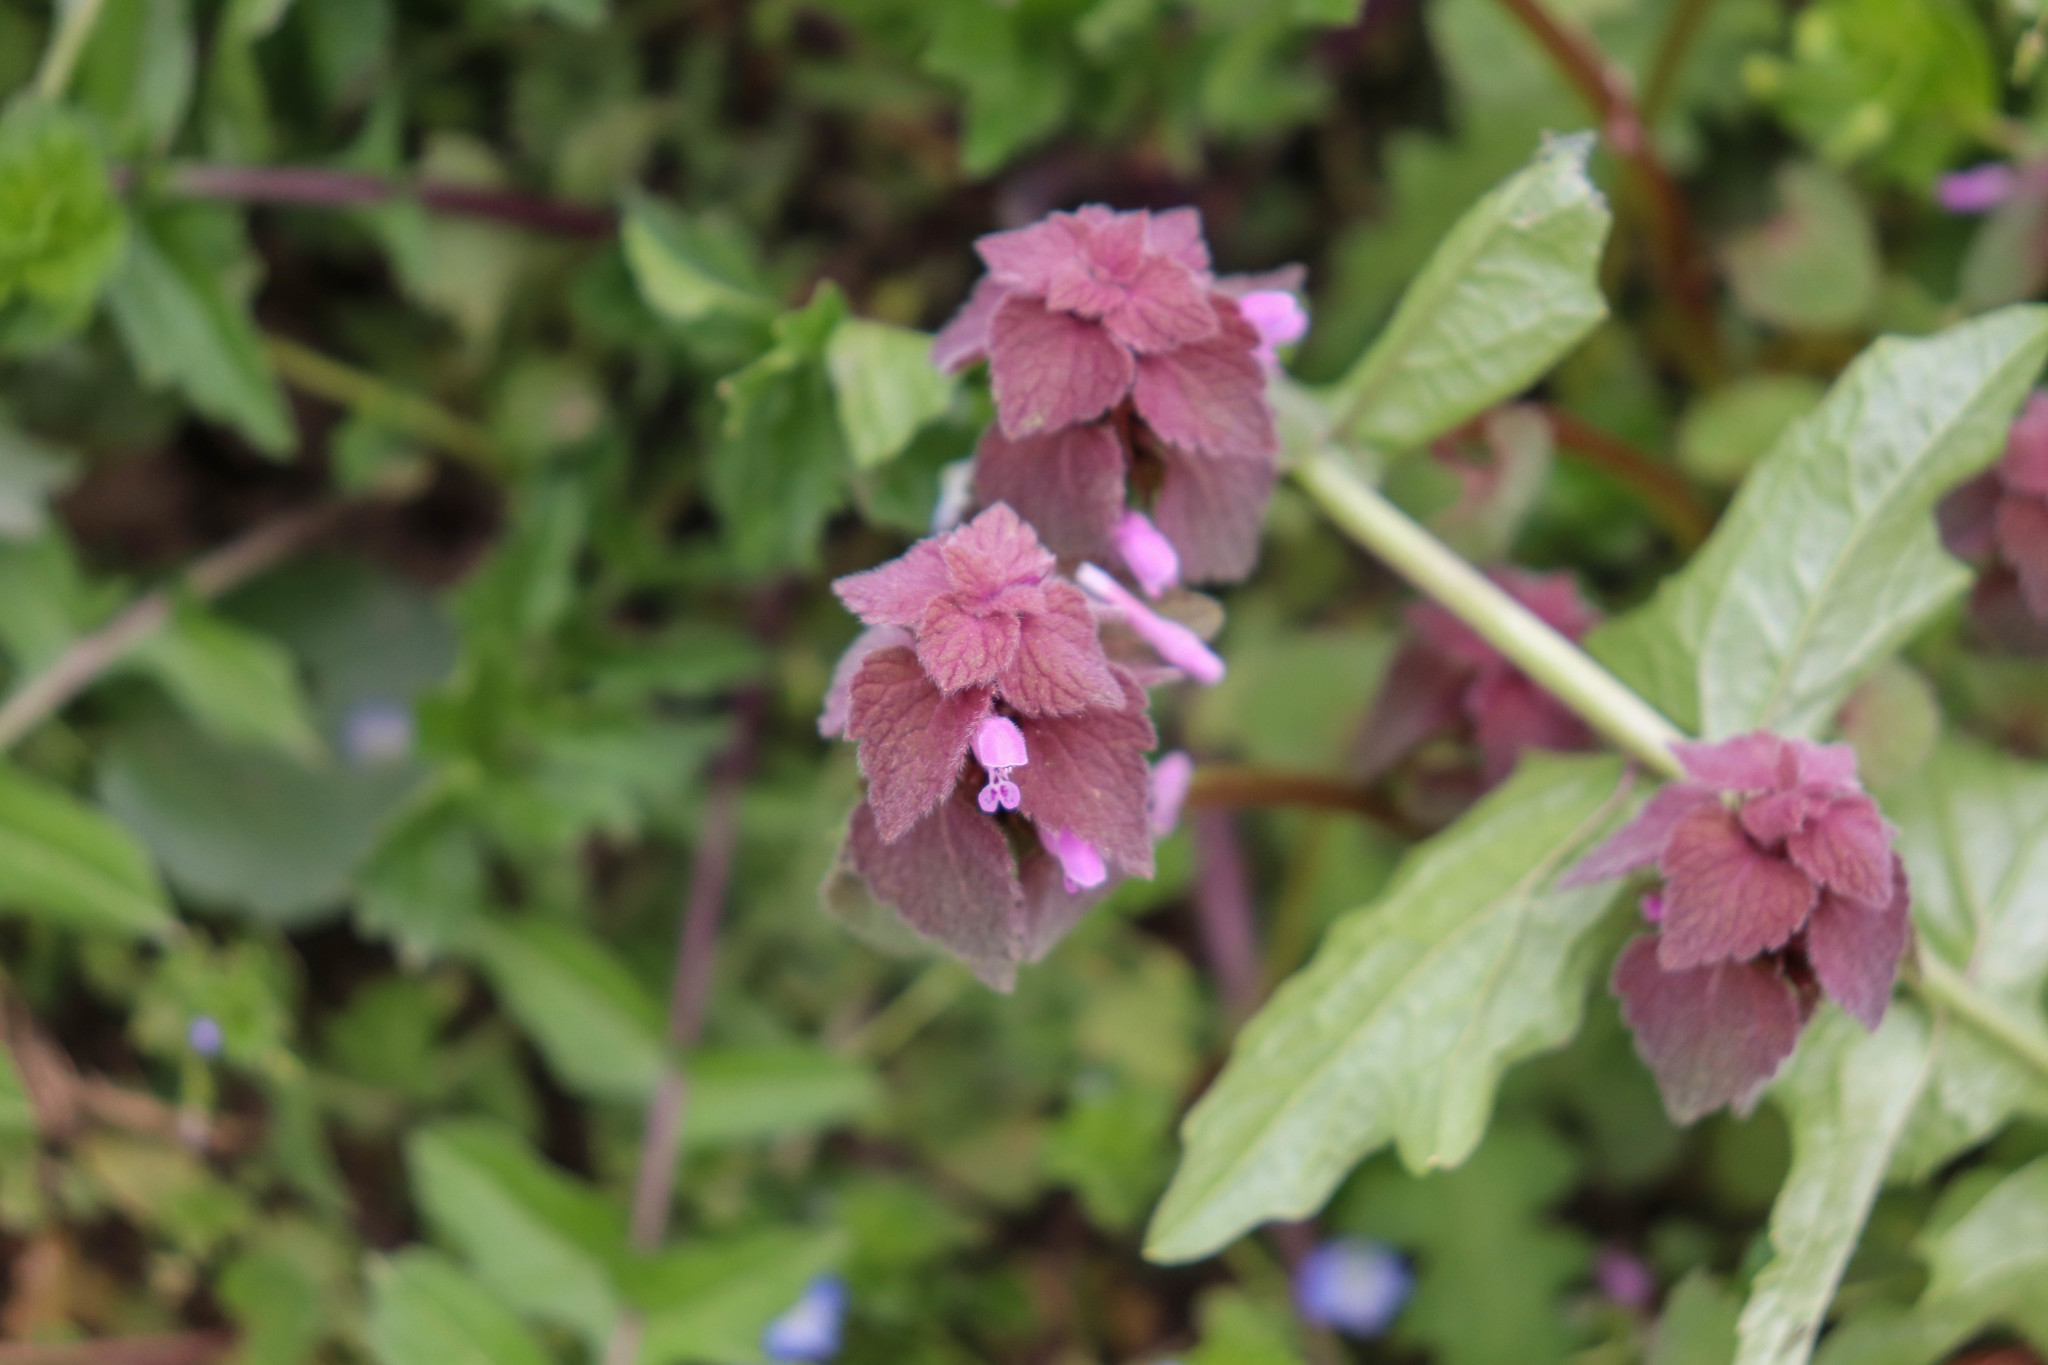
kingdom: Plantae
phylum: Tracheophyta
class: Magnoliopsida
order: Lamiales
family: Lamiaceae
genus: Lamium
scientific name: Lamium purpureum
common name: Red dead-nettle
